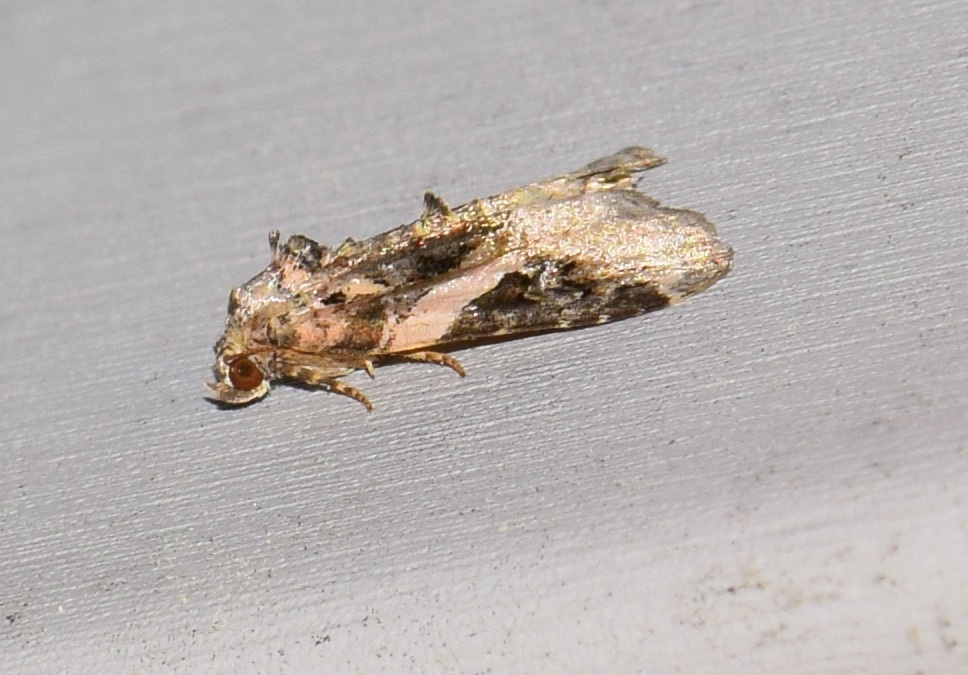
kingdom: Animalia
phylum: Arthropoda
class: Insecta
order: Lepidoptera
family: Noctuidae
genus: Pseudeustrotia
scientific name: Pseudeustrotia carneola
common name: Pink-barred lithacodia moth
